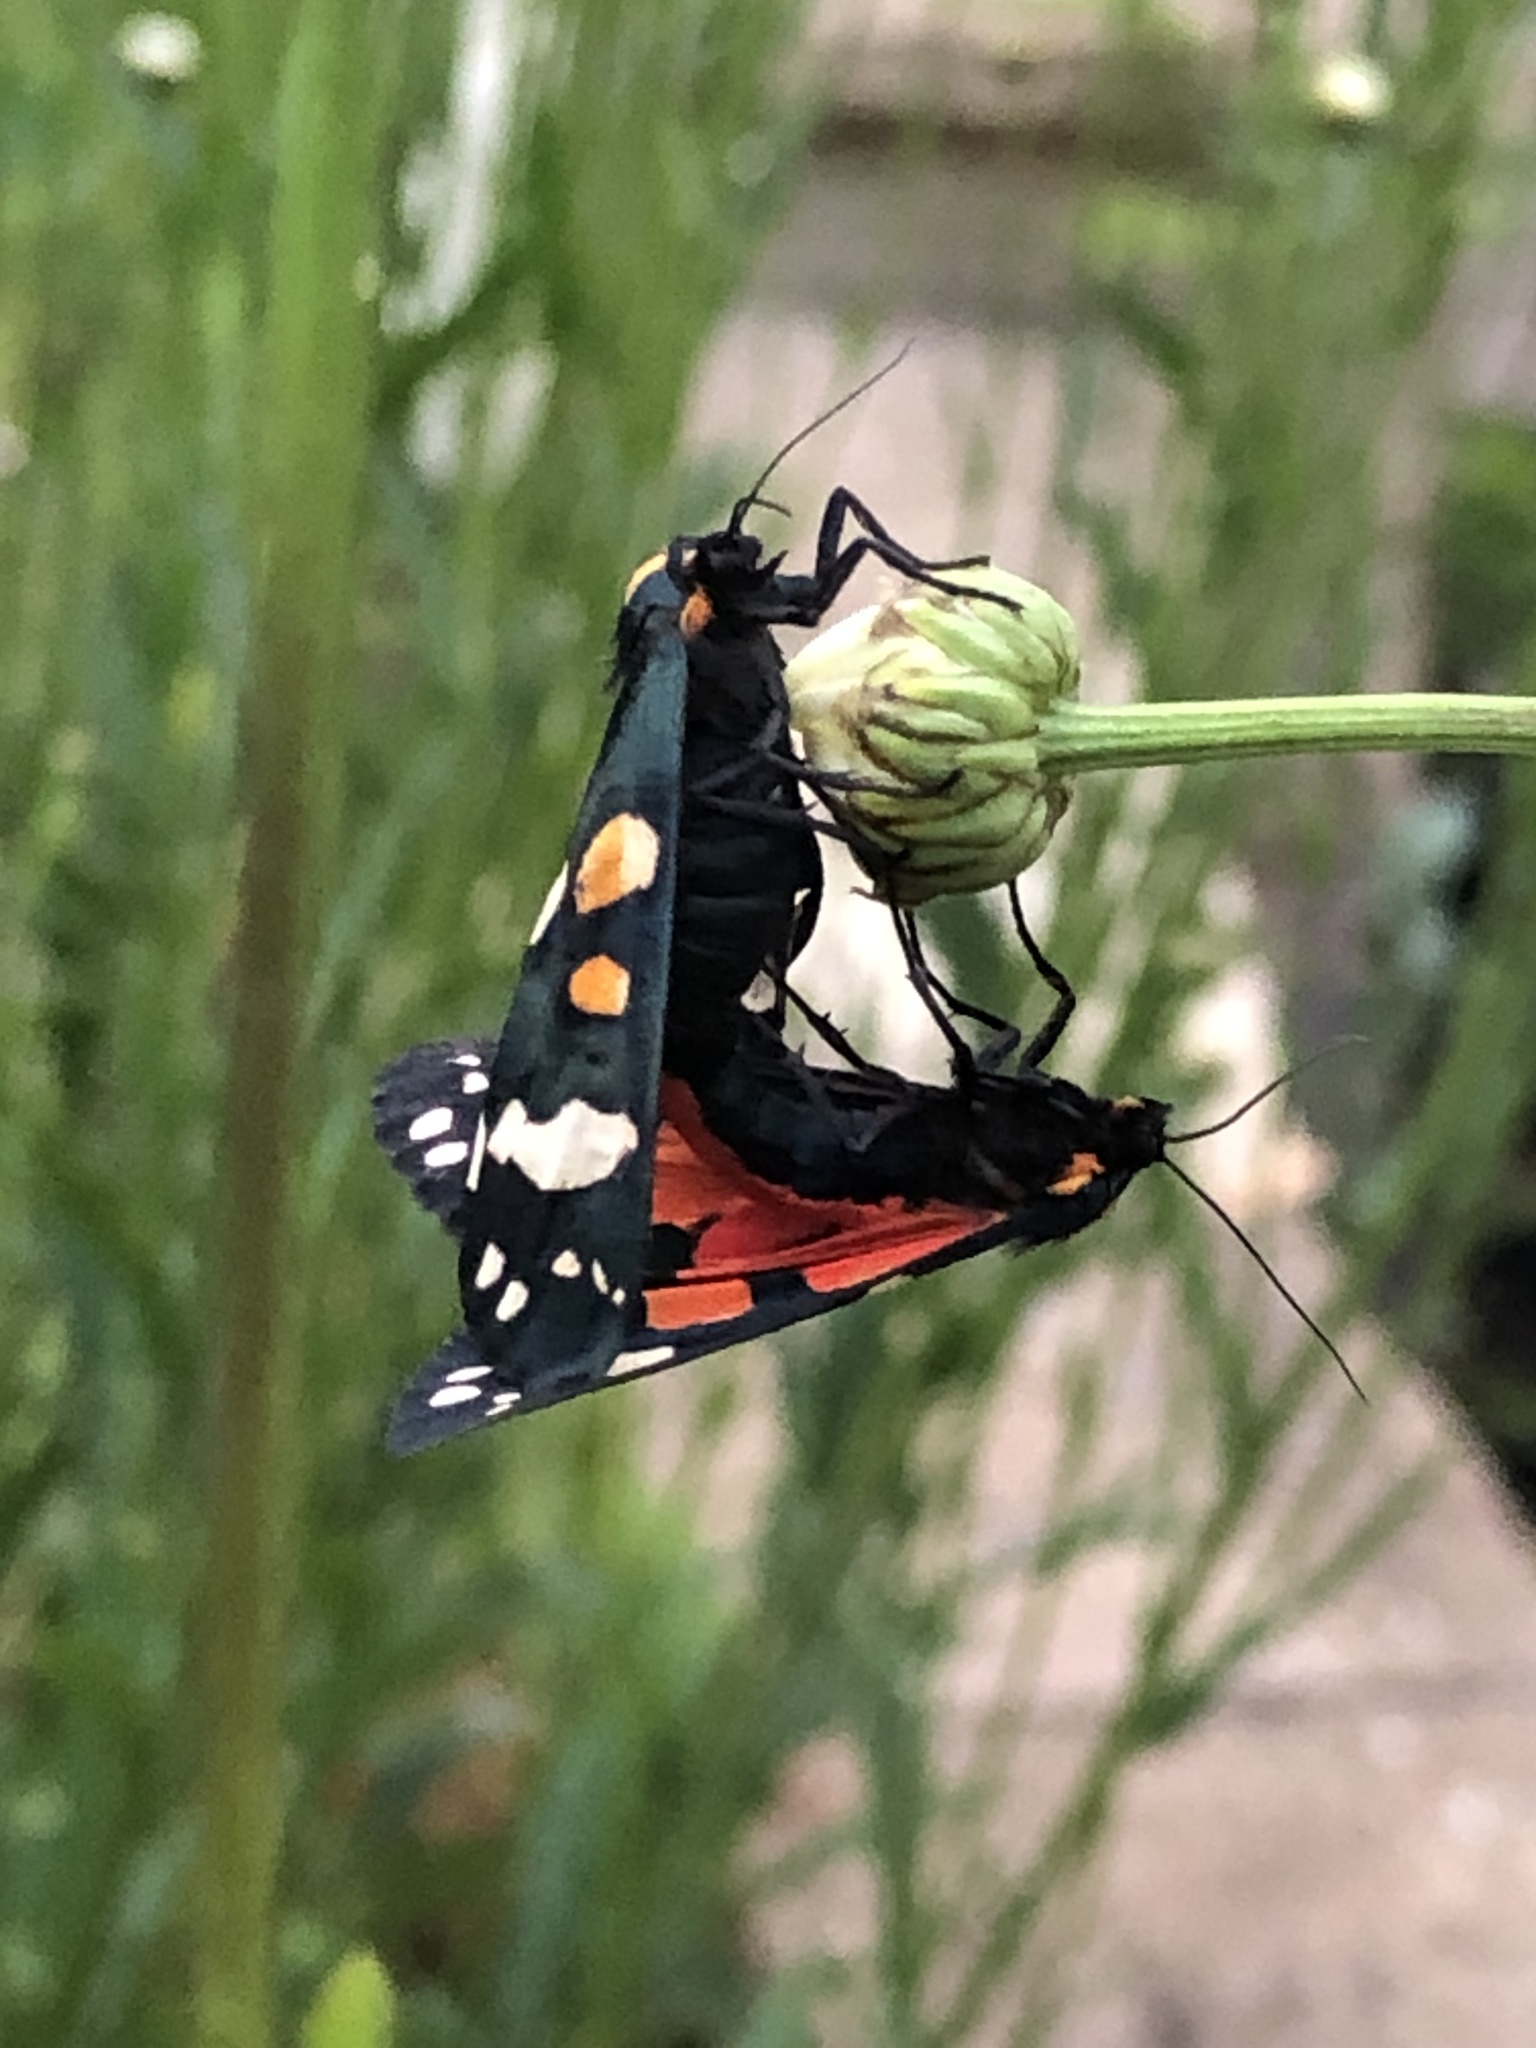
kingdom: Animalia
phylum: Arthropoda
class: Insecta
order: Lepidoptera
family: Erebidae
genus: Callimorpha
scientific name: Callimorpha dominula
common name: Scarlet tiger
